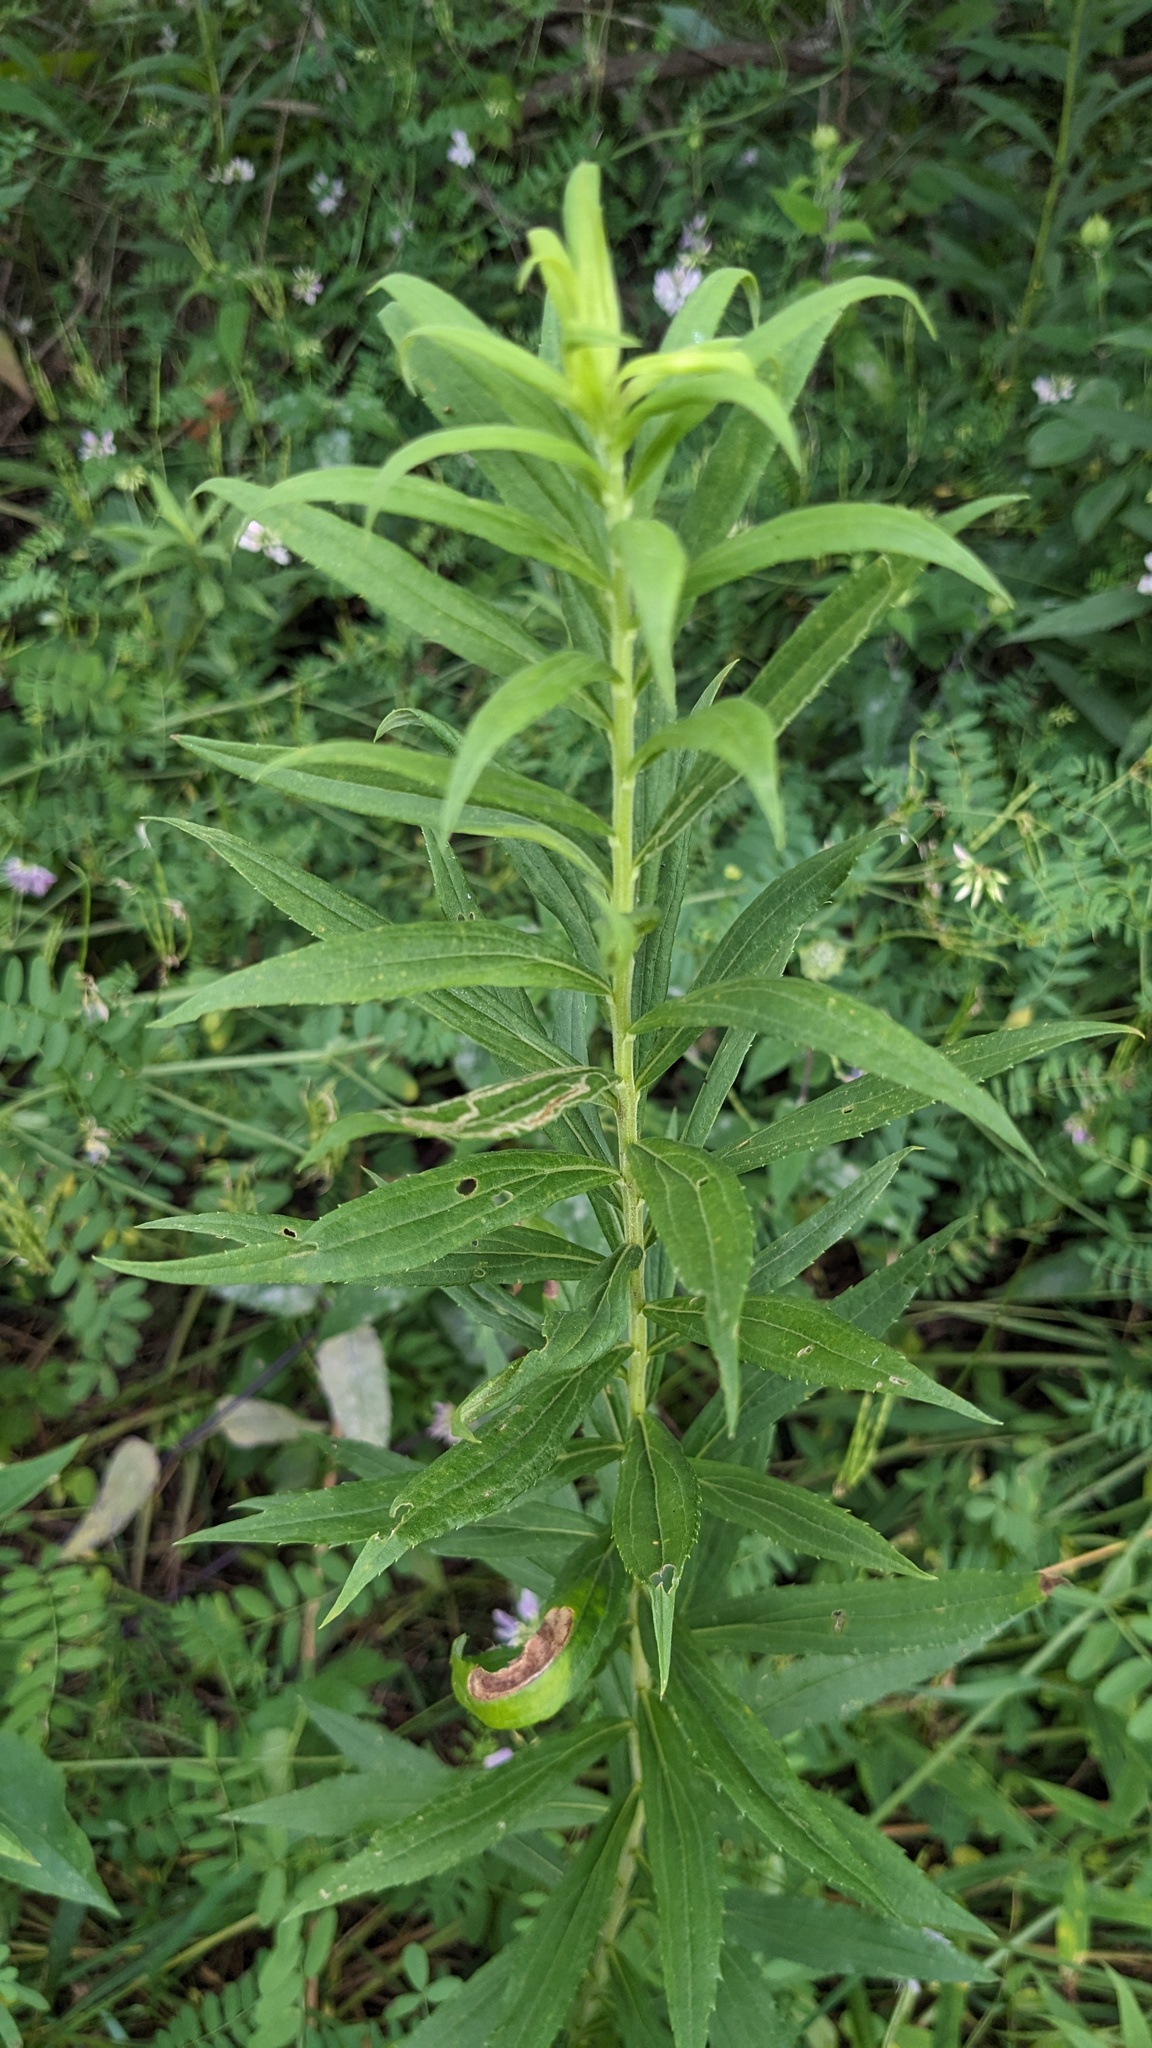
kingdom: Plantae
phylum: Tracheophyta
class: Magnoliopsida
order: Asterales
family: Asteraceae
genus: Solidago
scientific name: Solidago altissima
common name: Late goldenrod
